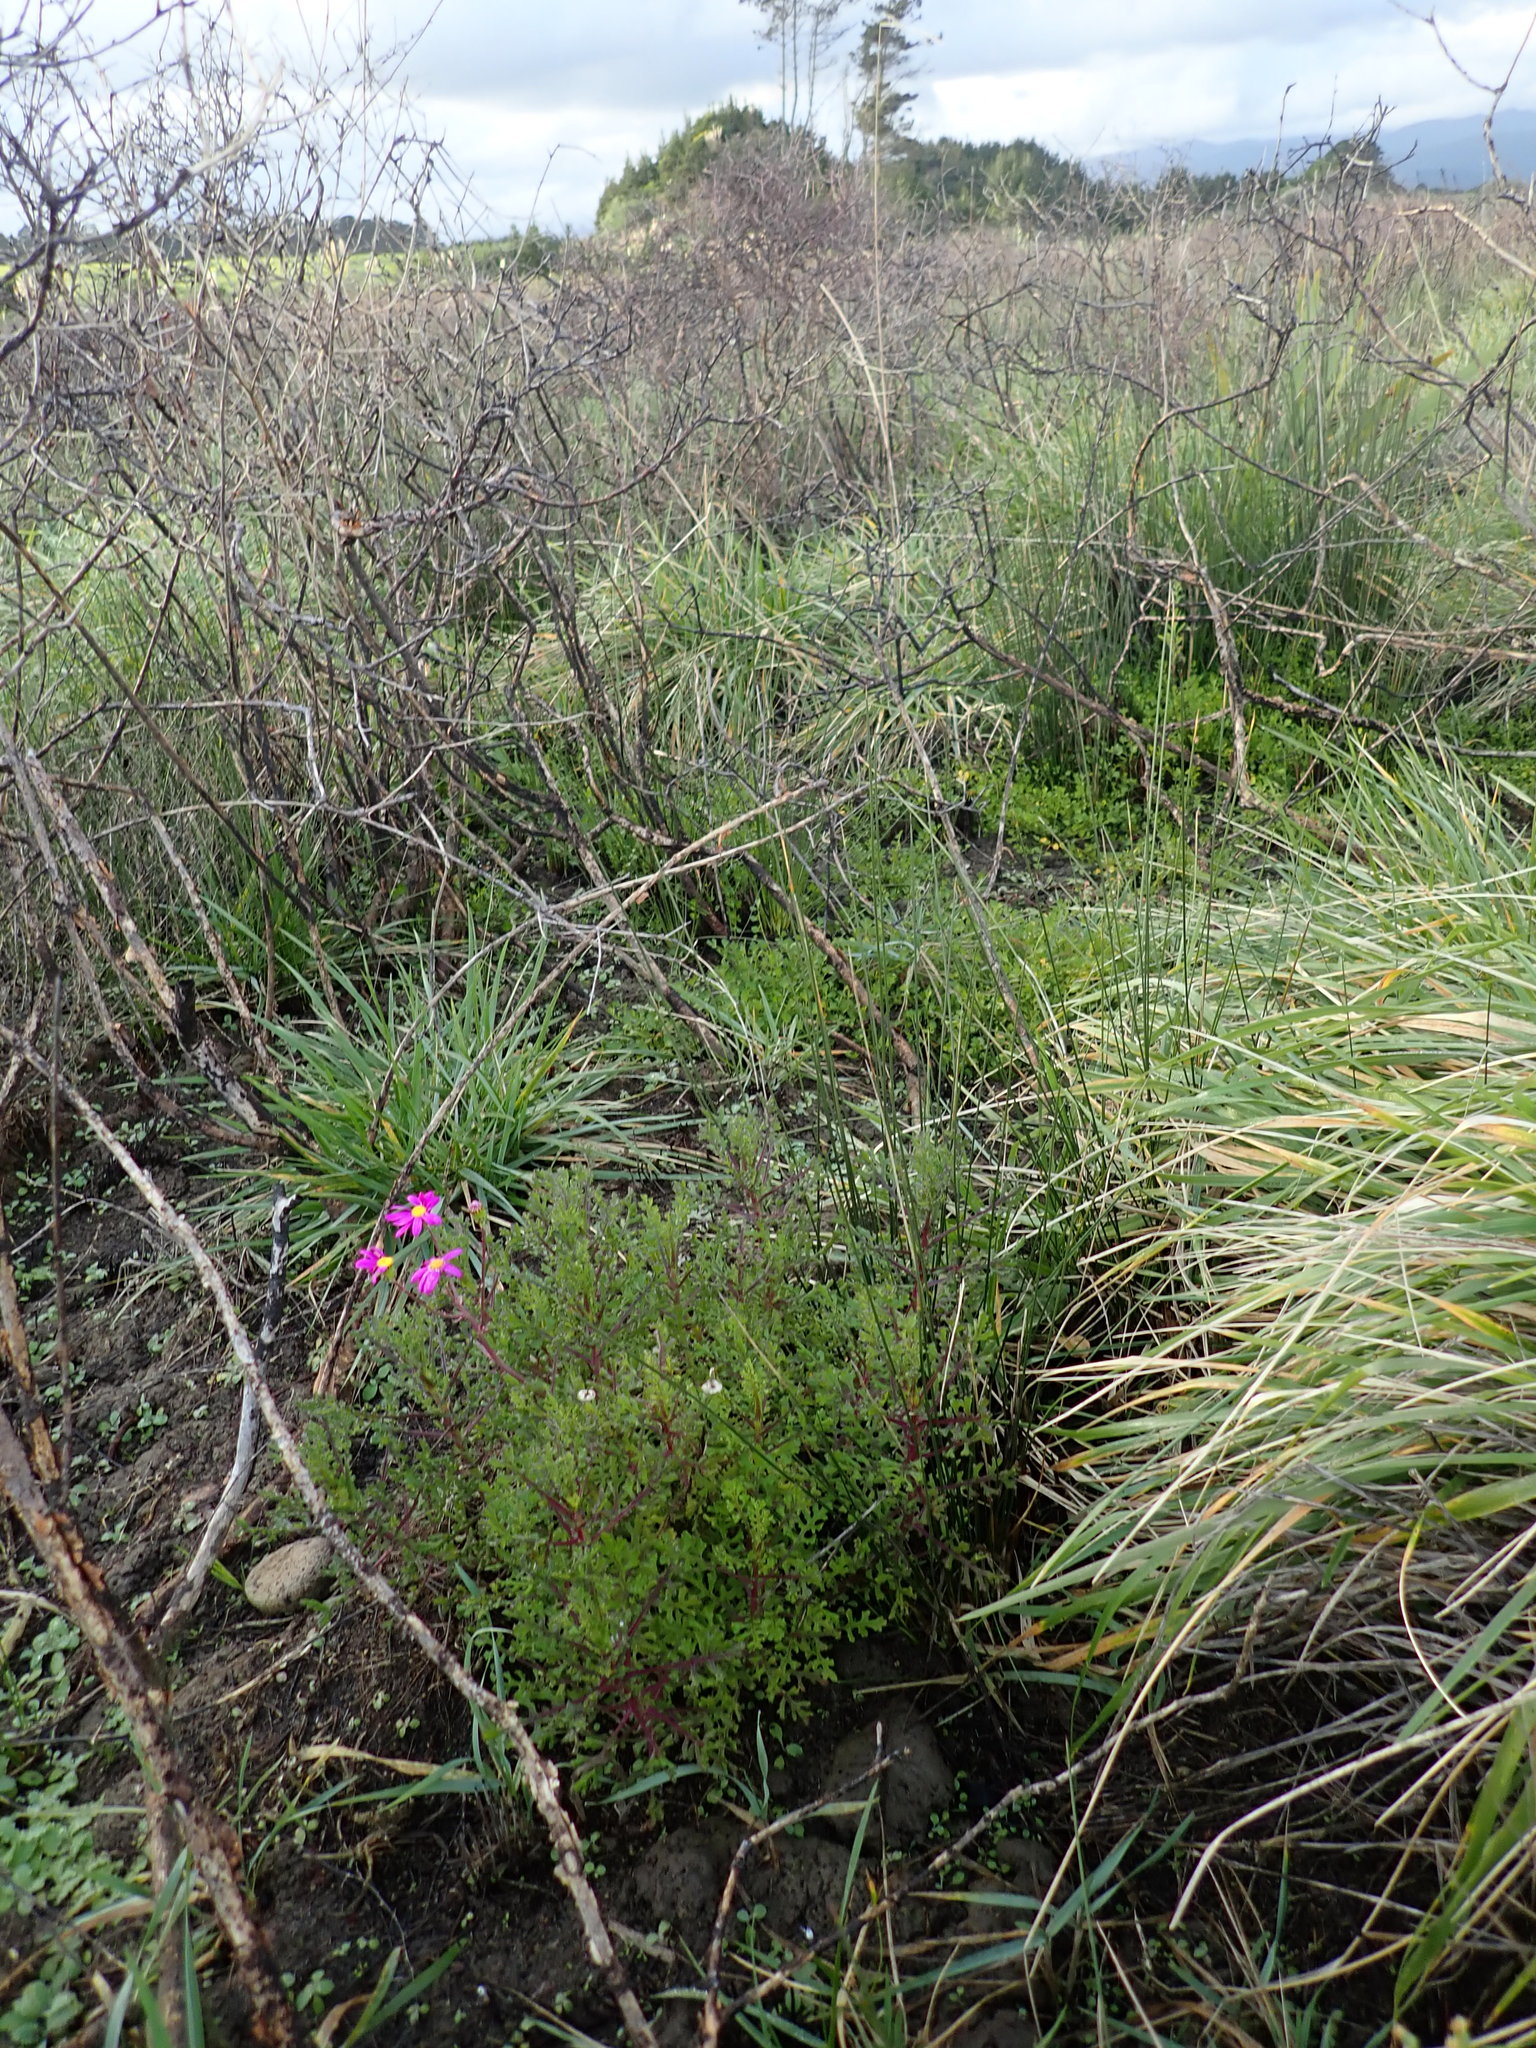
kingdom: Plantae
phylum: Tracheophyta
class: Magnoliopsida
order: Asterales
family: Asteraceae
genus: Senecio
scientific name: Senecio elegans
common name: Purple groundsel
